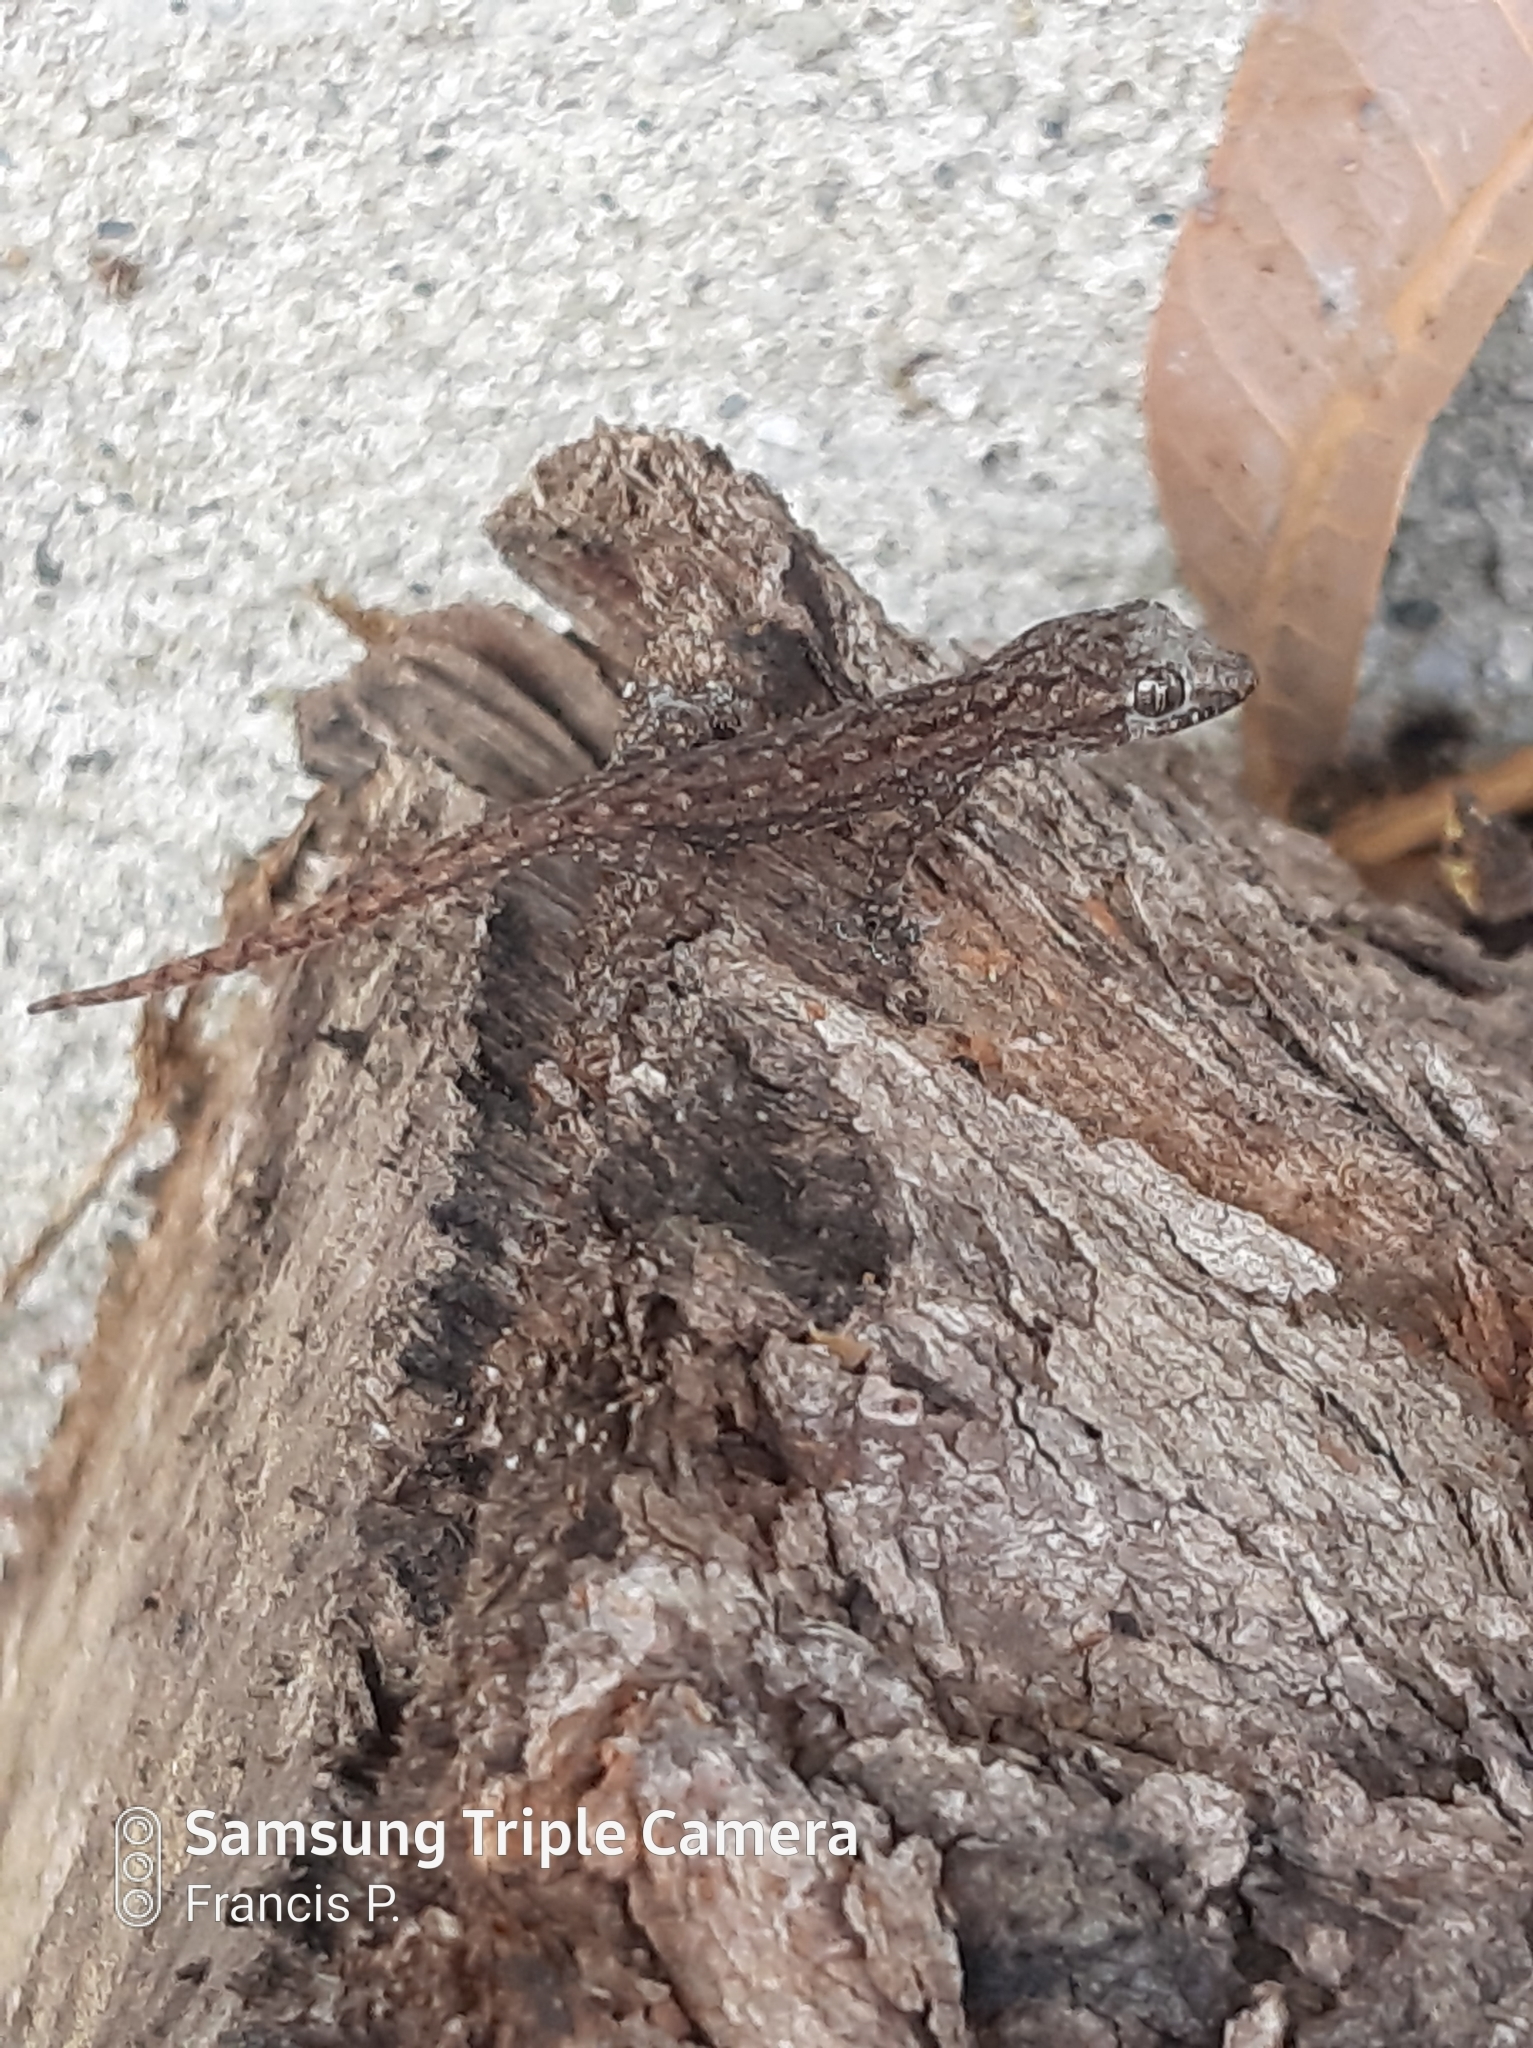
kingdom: Animalia
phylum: Chordata
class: Squamata
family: Gekkonidae
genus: Hemidactylus
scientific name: Hemidactylus frenatus
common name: Common house gecko
